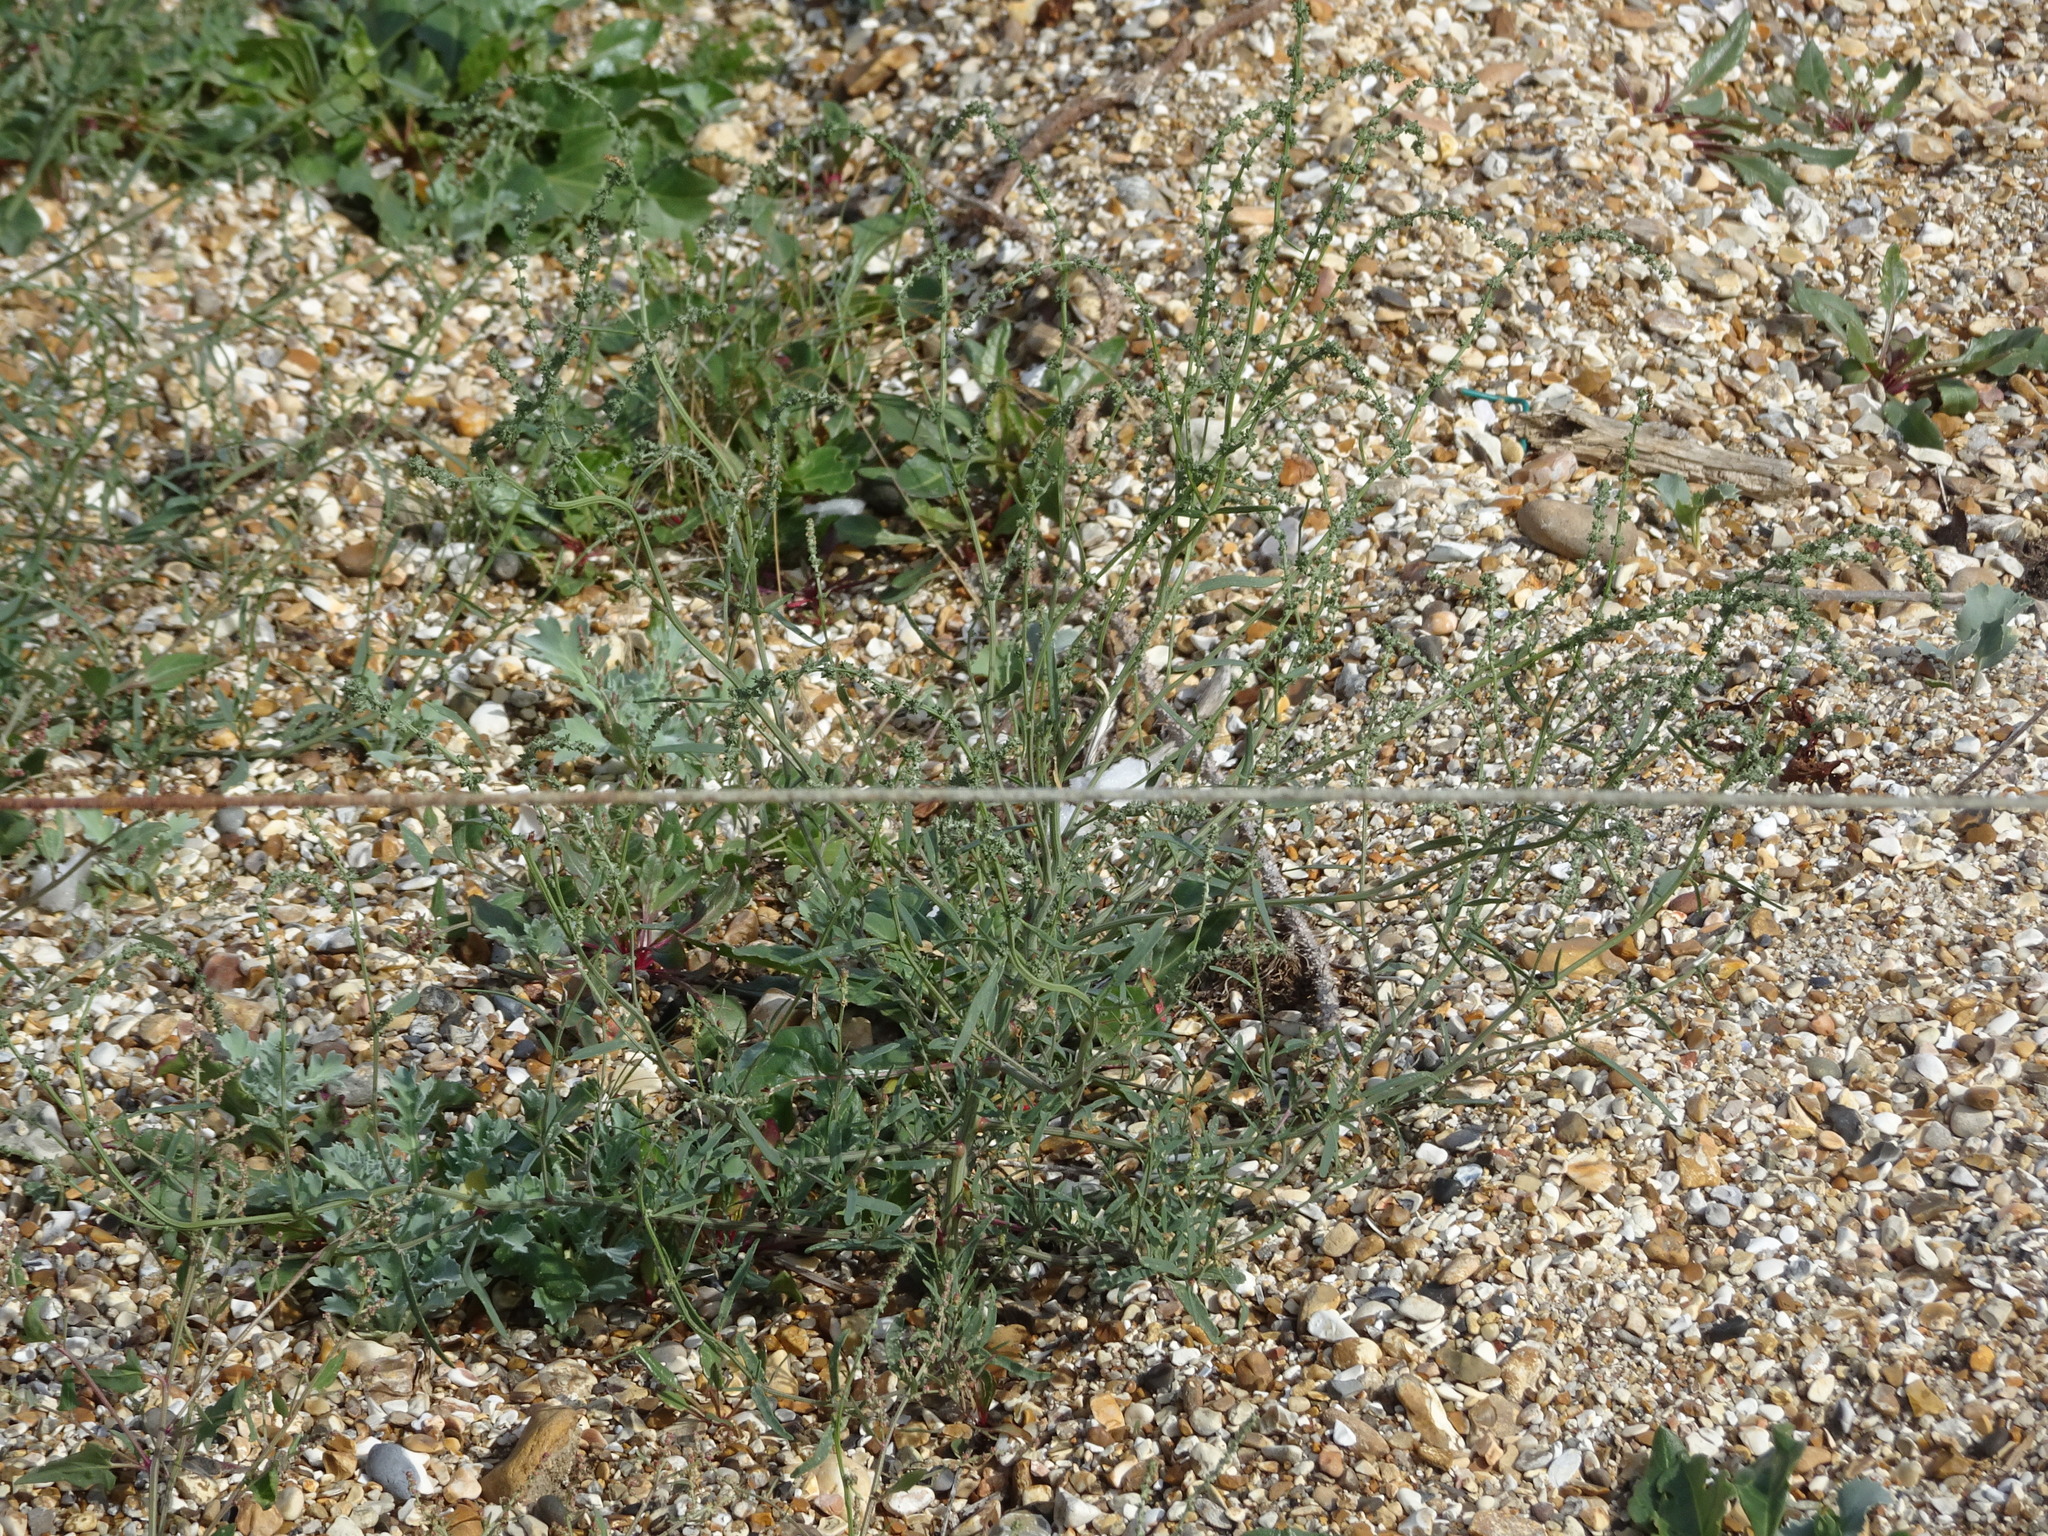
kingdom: Plantae
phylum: Tracheophyta
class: Magnoliopsida
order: Caryophyllales
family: Amaranthaceae
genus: Atriplex
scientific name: Atriplex littoralis
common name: Grass-leaved orache
